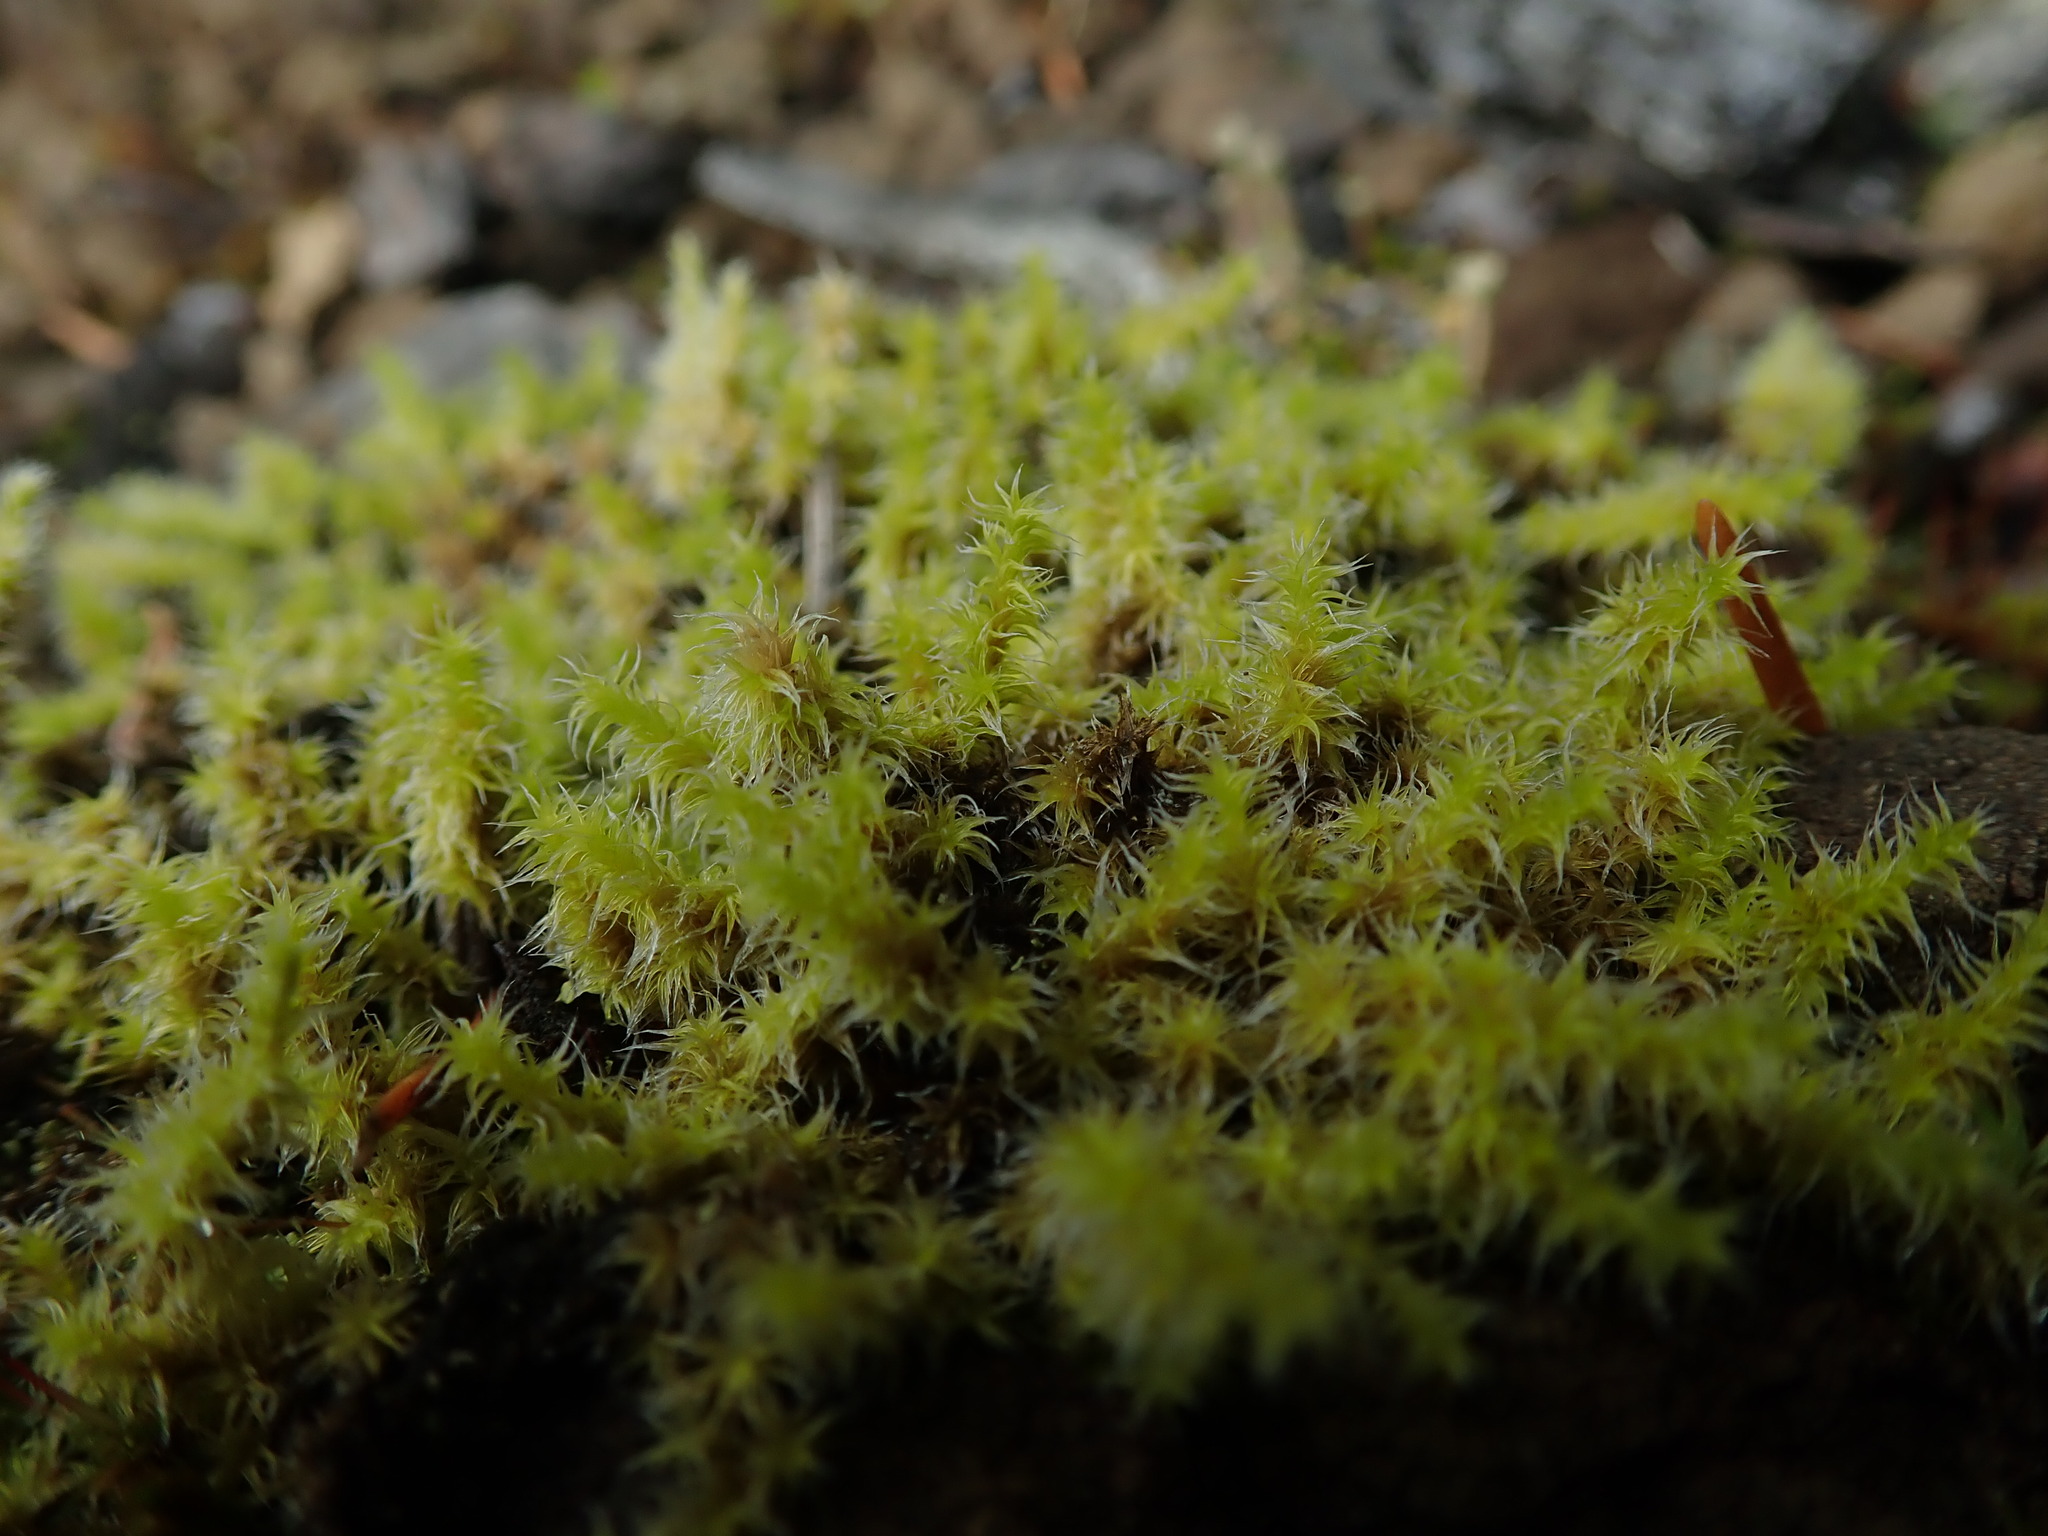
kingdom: Plantae
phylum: Bryophyta
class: Bryopsida
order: Grimmiales
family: Grimmiaceae
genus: Niphotrichum
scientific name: Niphotrichum elongatum
